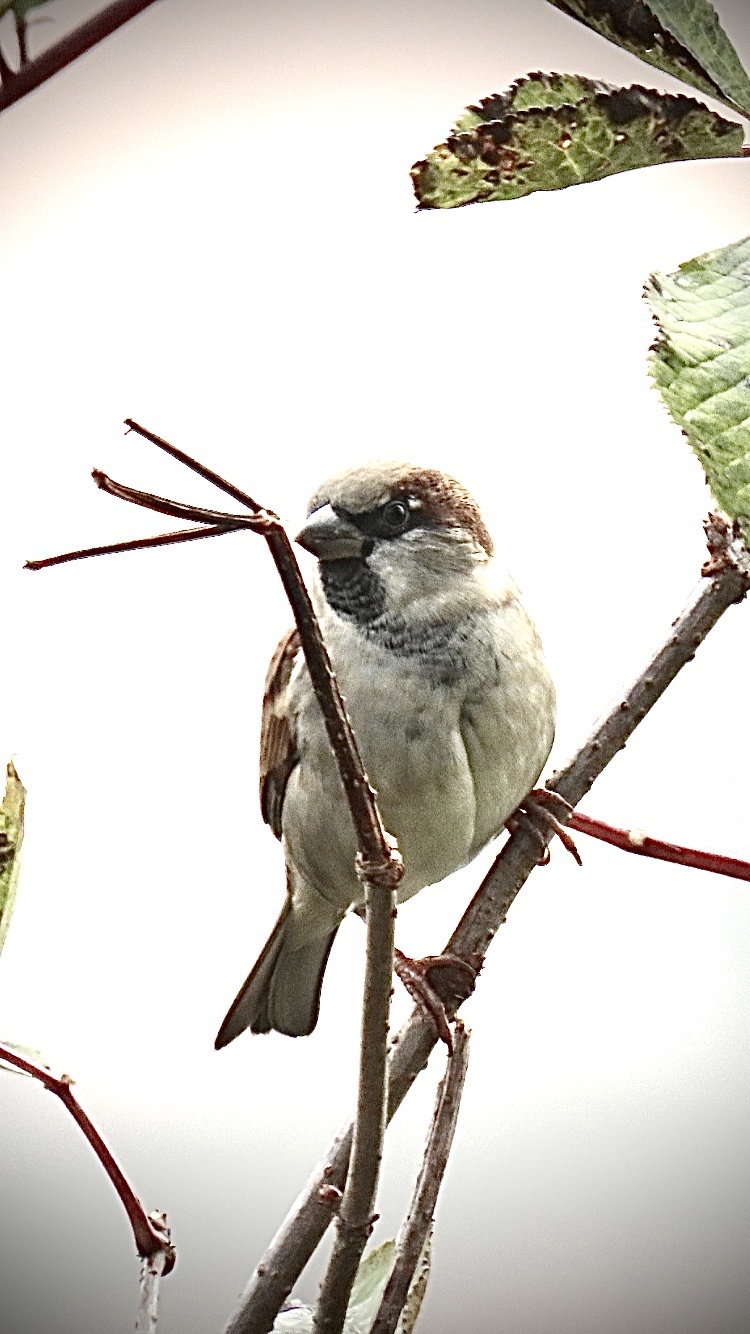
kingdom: Animalia
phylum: Chordata
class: Aves
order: Passeriformes
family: Passeridae
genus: Passer
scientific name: Passer domesticus
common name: House sparrow
